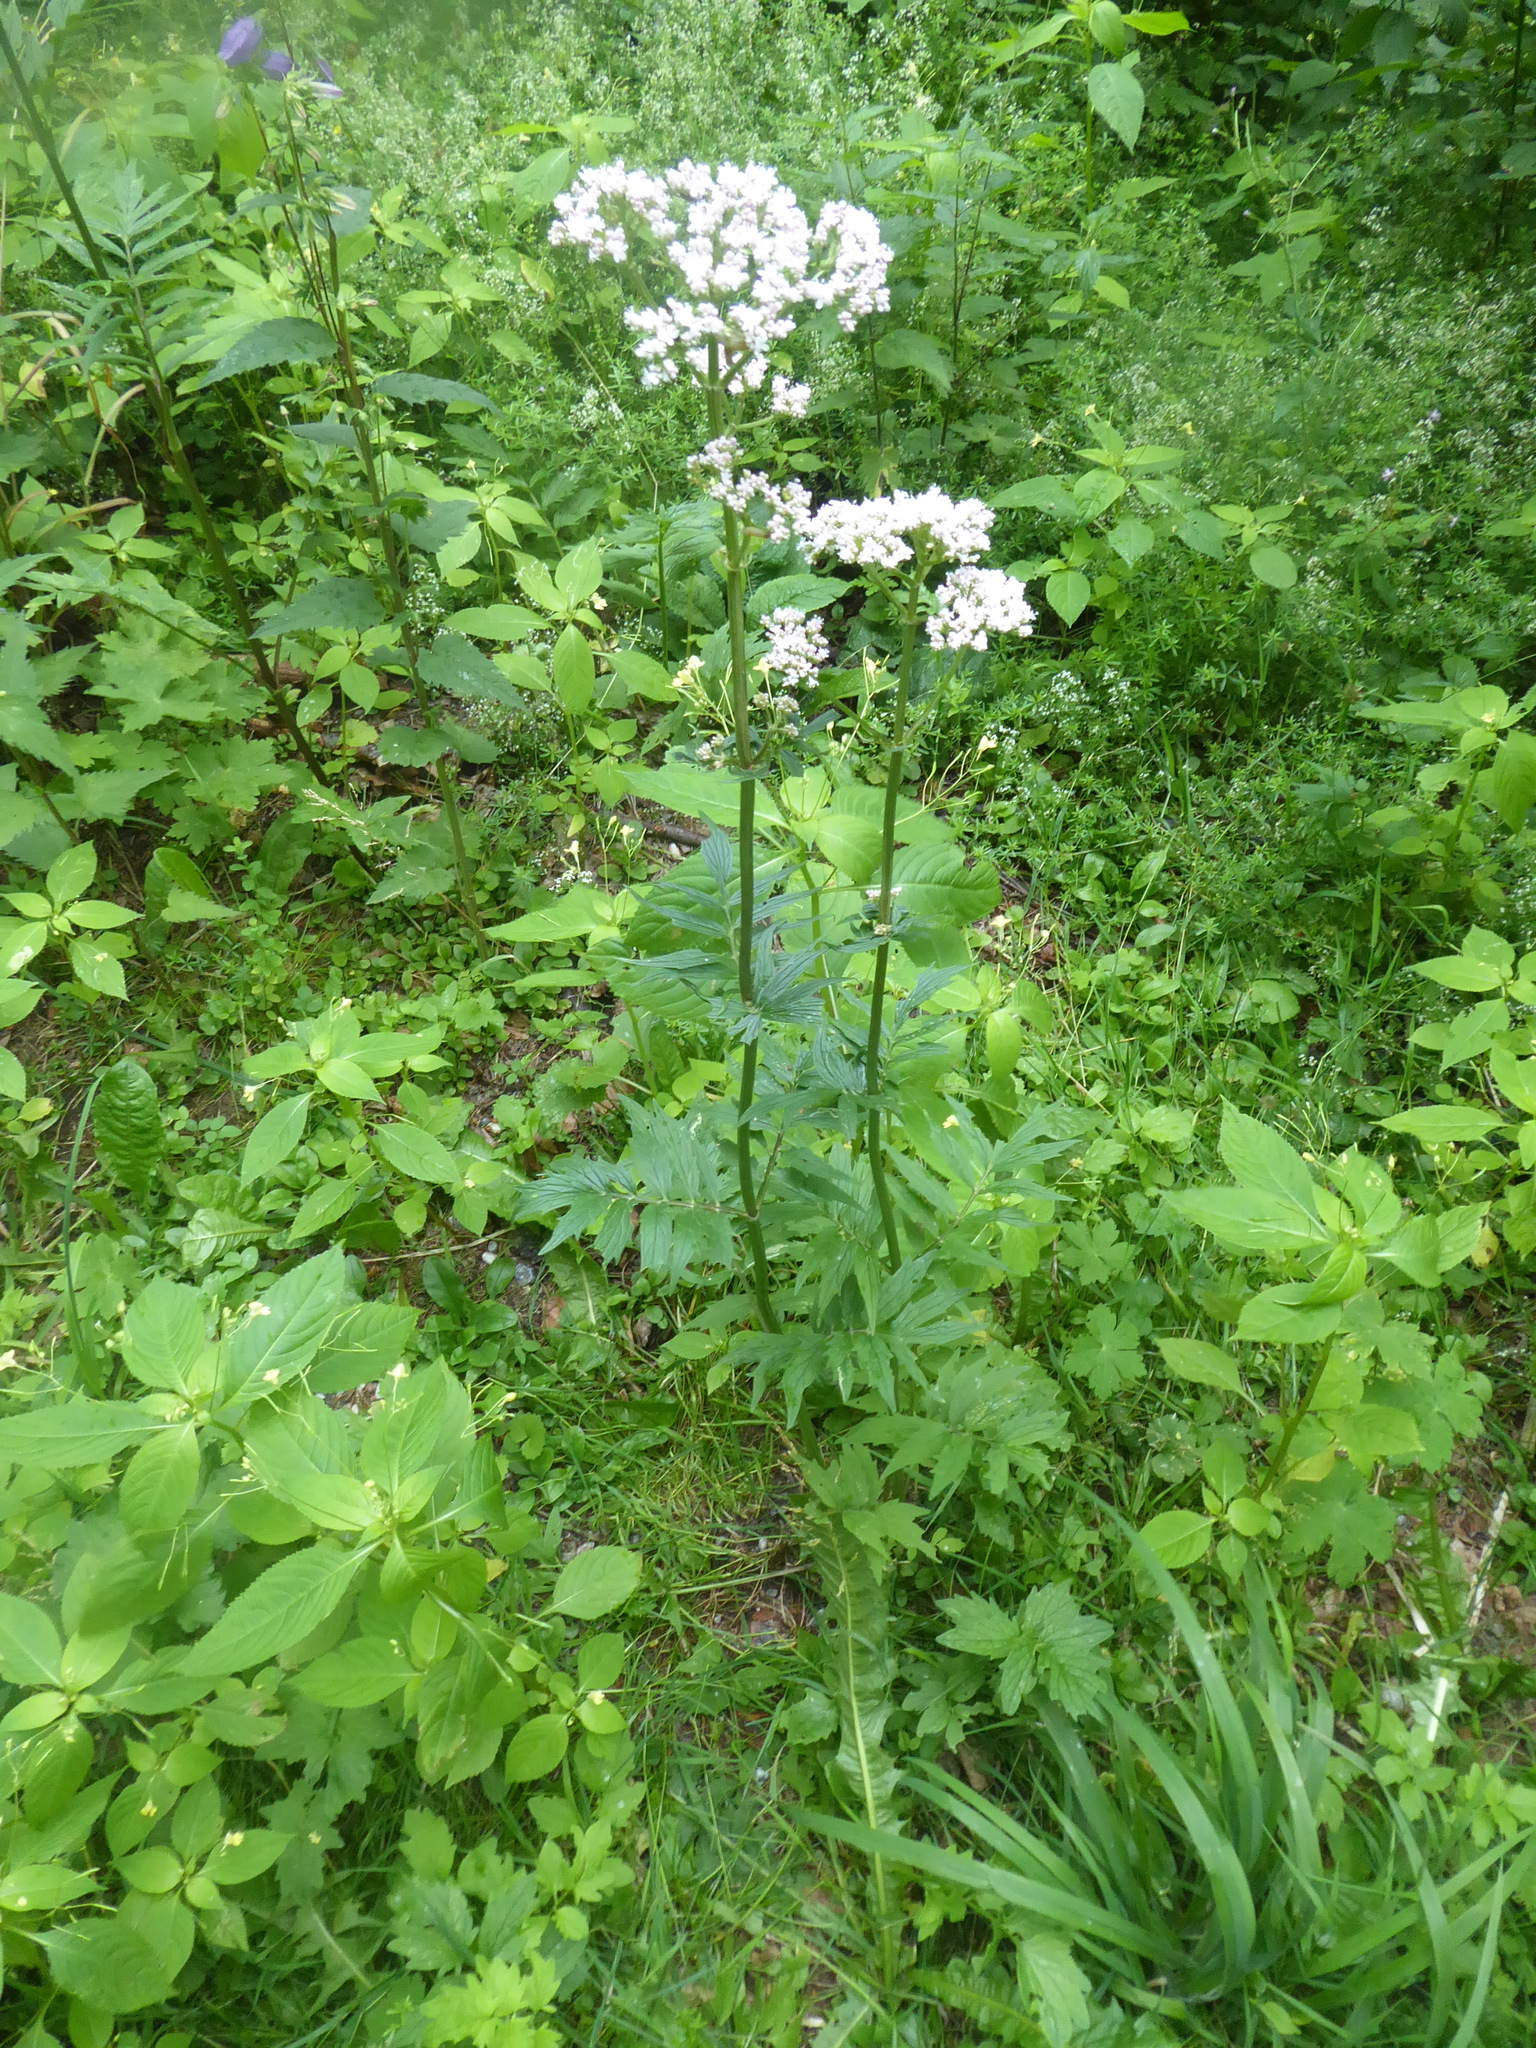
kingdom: Plantae
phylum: Tracheophyta
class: Magnoliopsida
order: Dipsacales
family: Caprifoliaceae
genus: Valeriana
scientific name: Valeriana officinalis
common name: Common valerian
